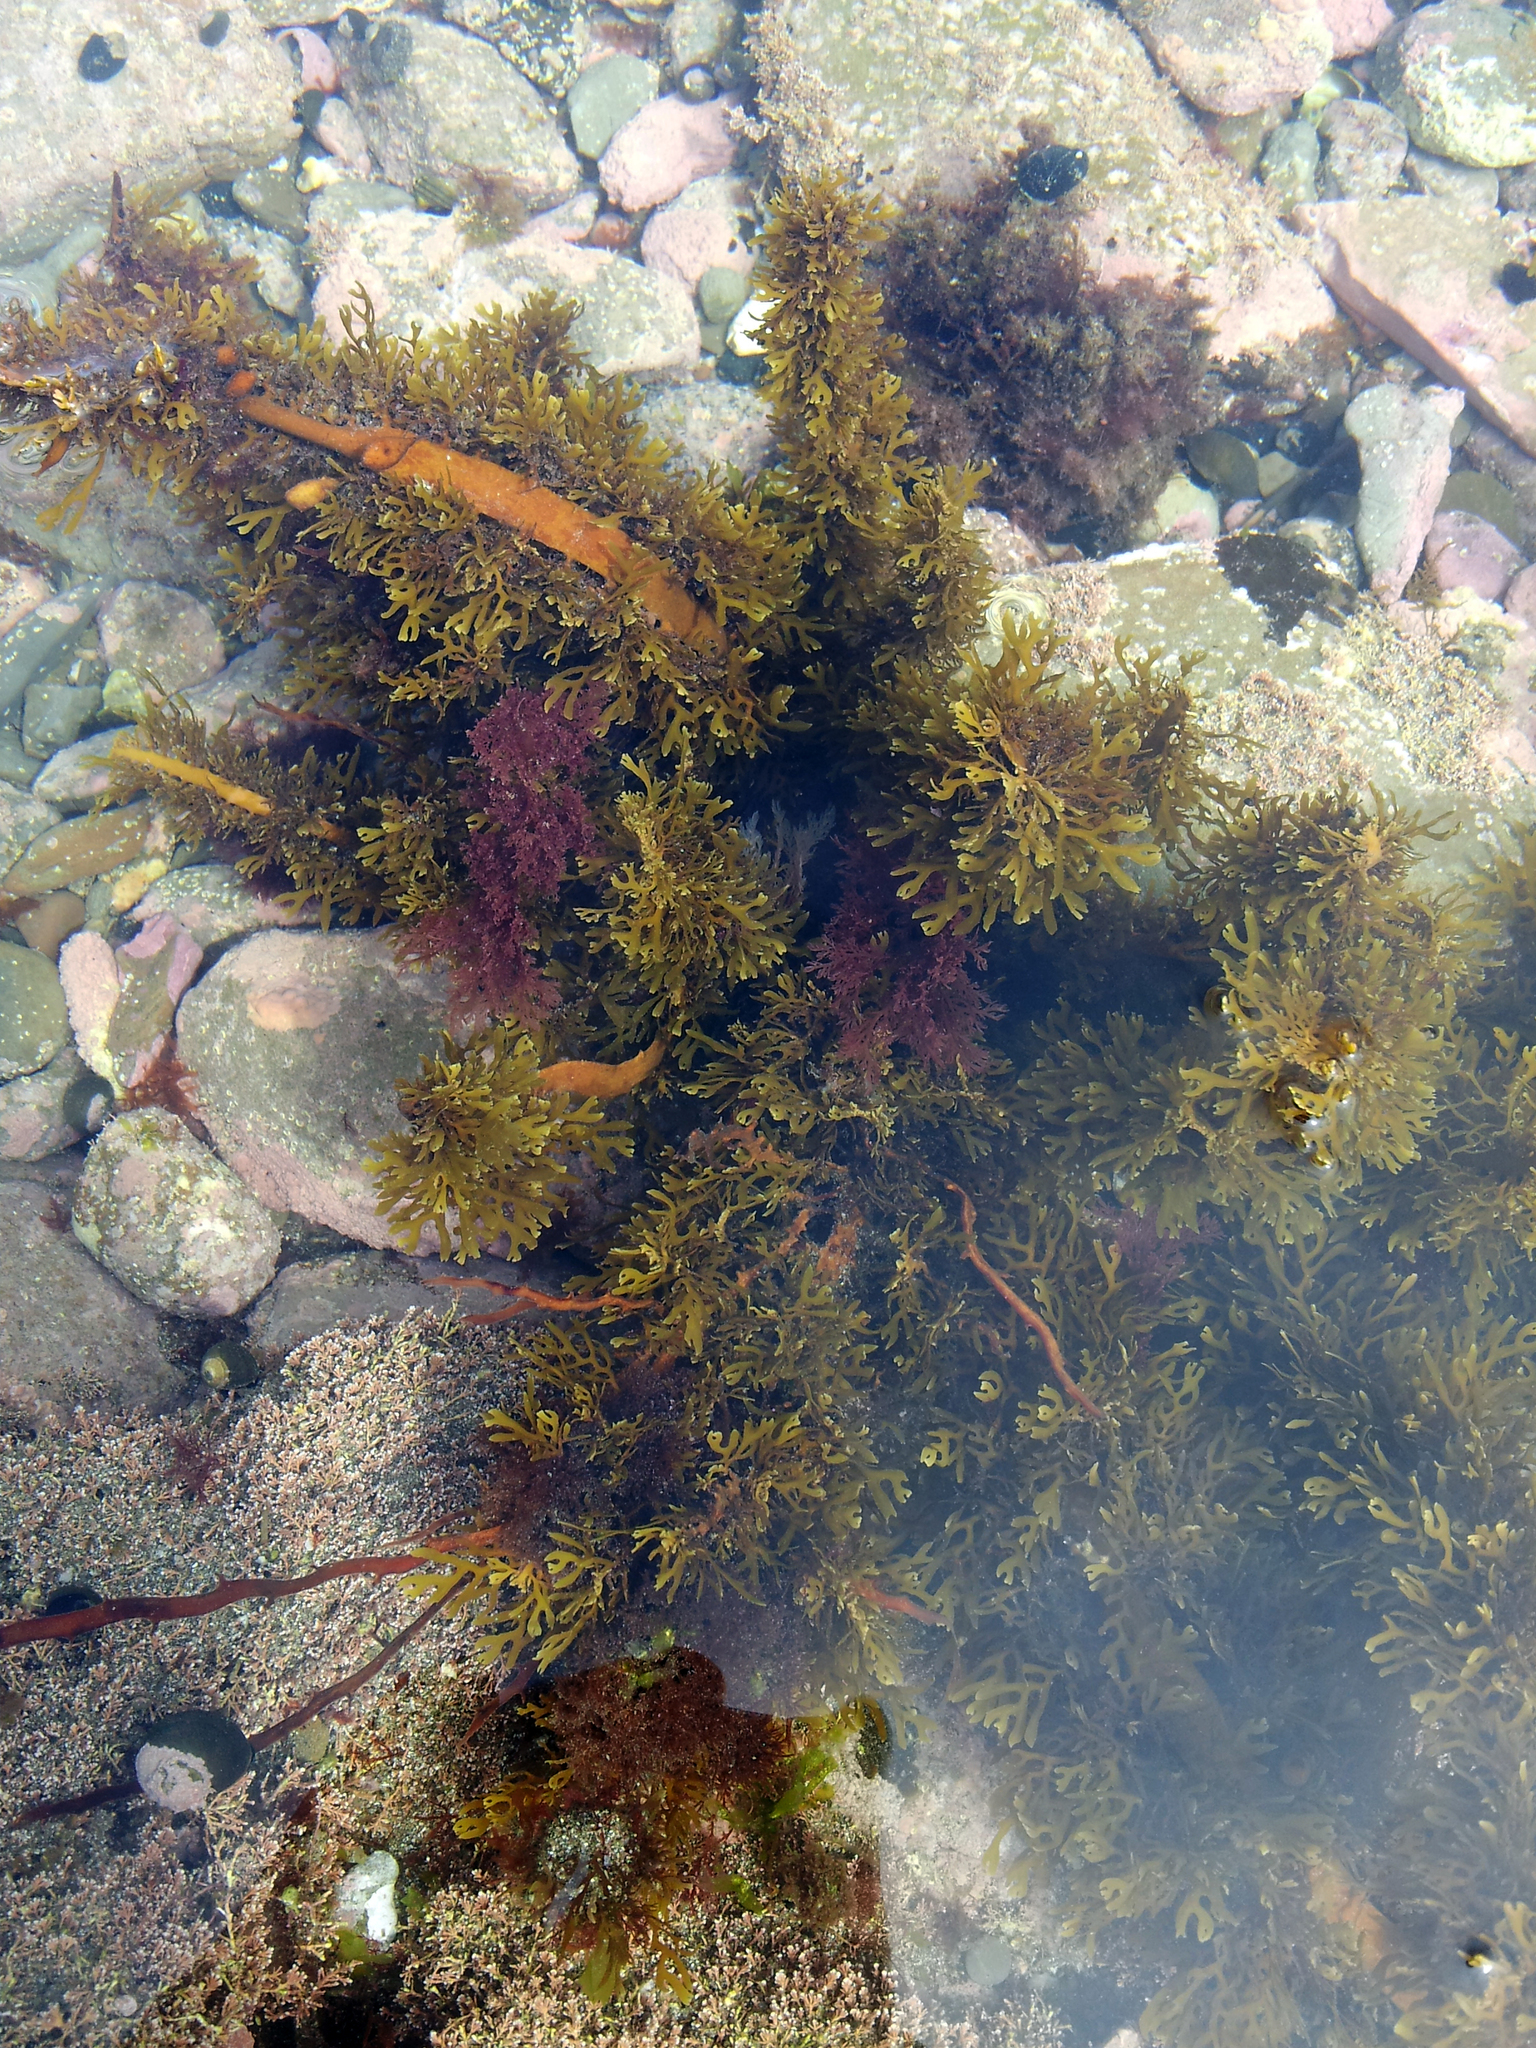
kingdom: Chromista
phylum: Ochrophyta
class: Phaeophyceae
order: Fucales
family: Sargassaceae
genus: Carpophyllum
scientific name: Carpophyllum plumosum
